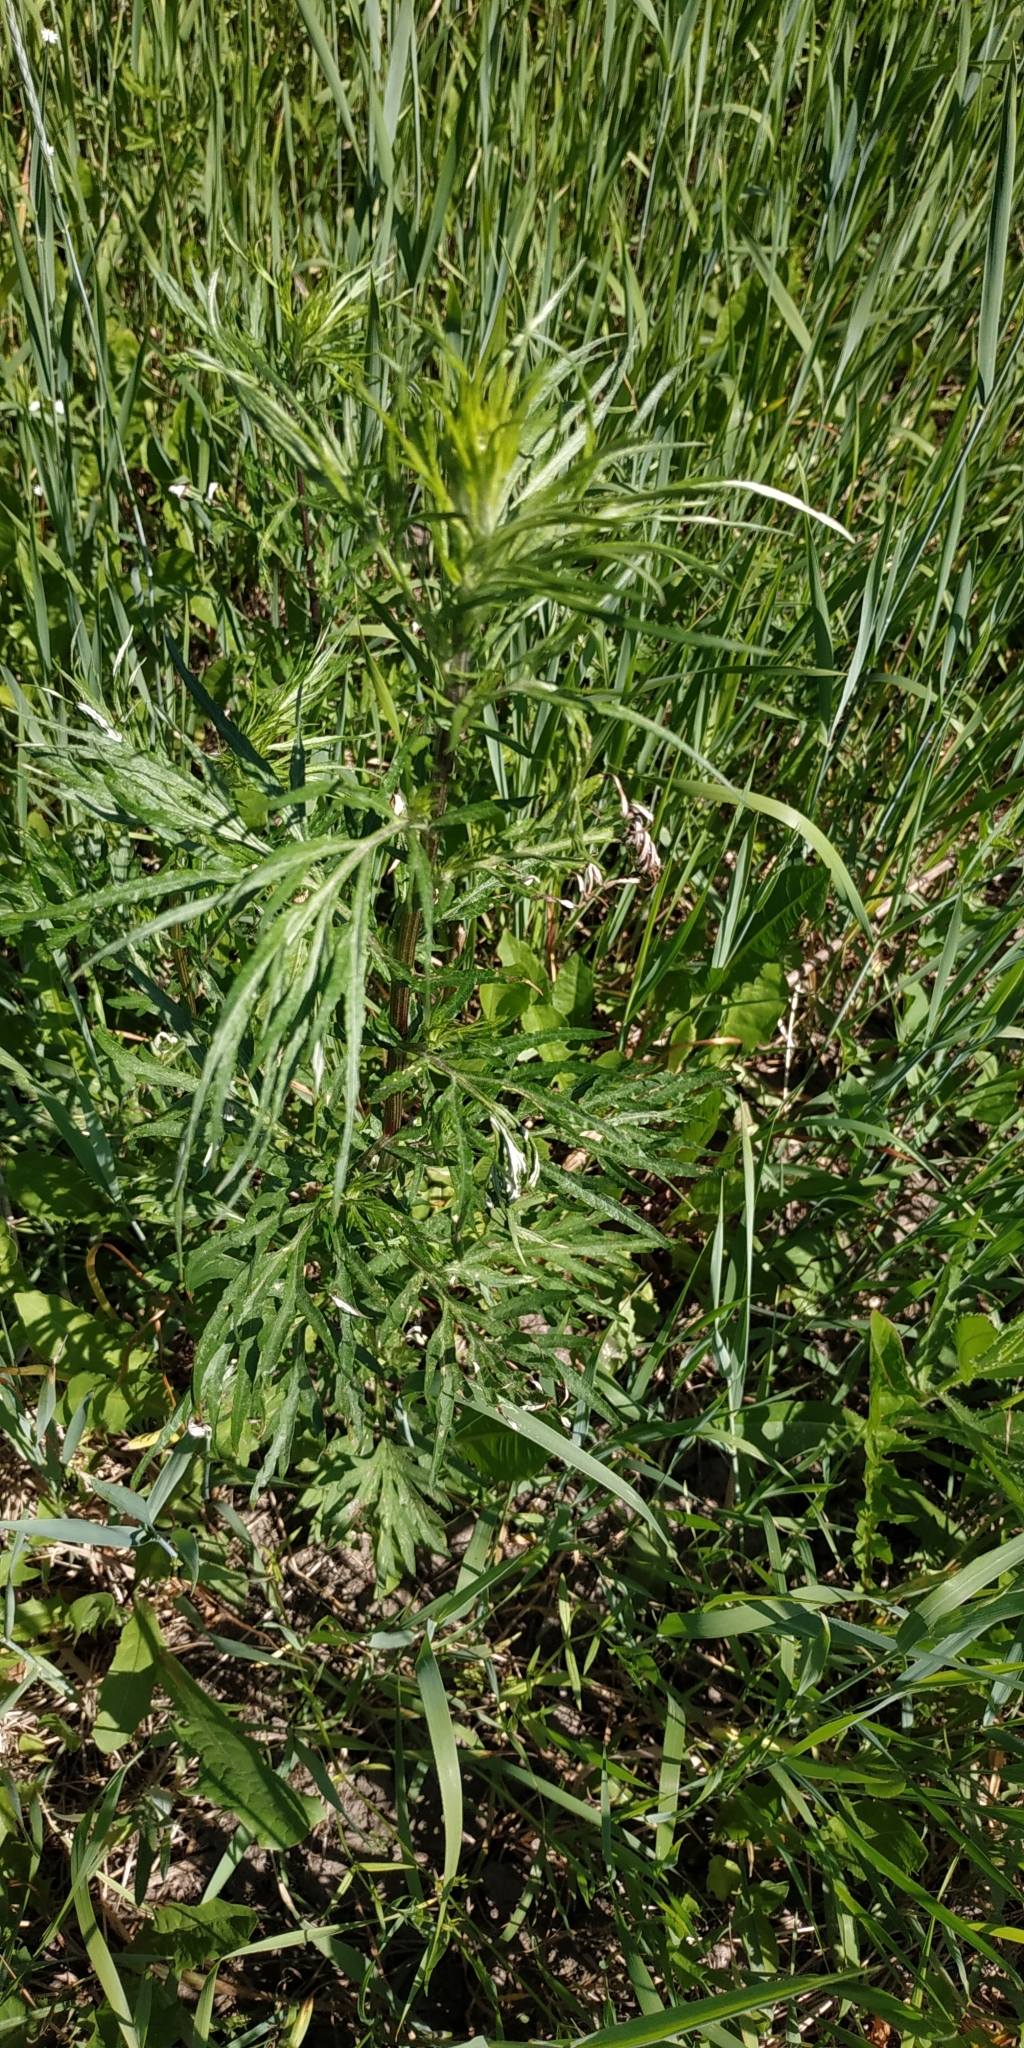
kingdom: Plantae
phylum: Tracheophyta
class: Magnoliopsida
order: Asterales
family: Asteraceae
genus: Artemisia
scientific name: Artemisia vulgaris
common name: Mugwort
